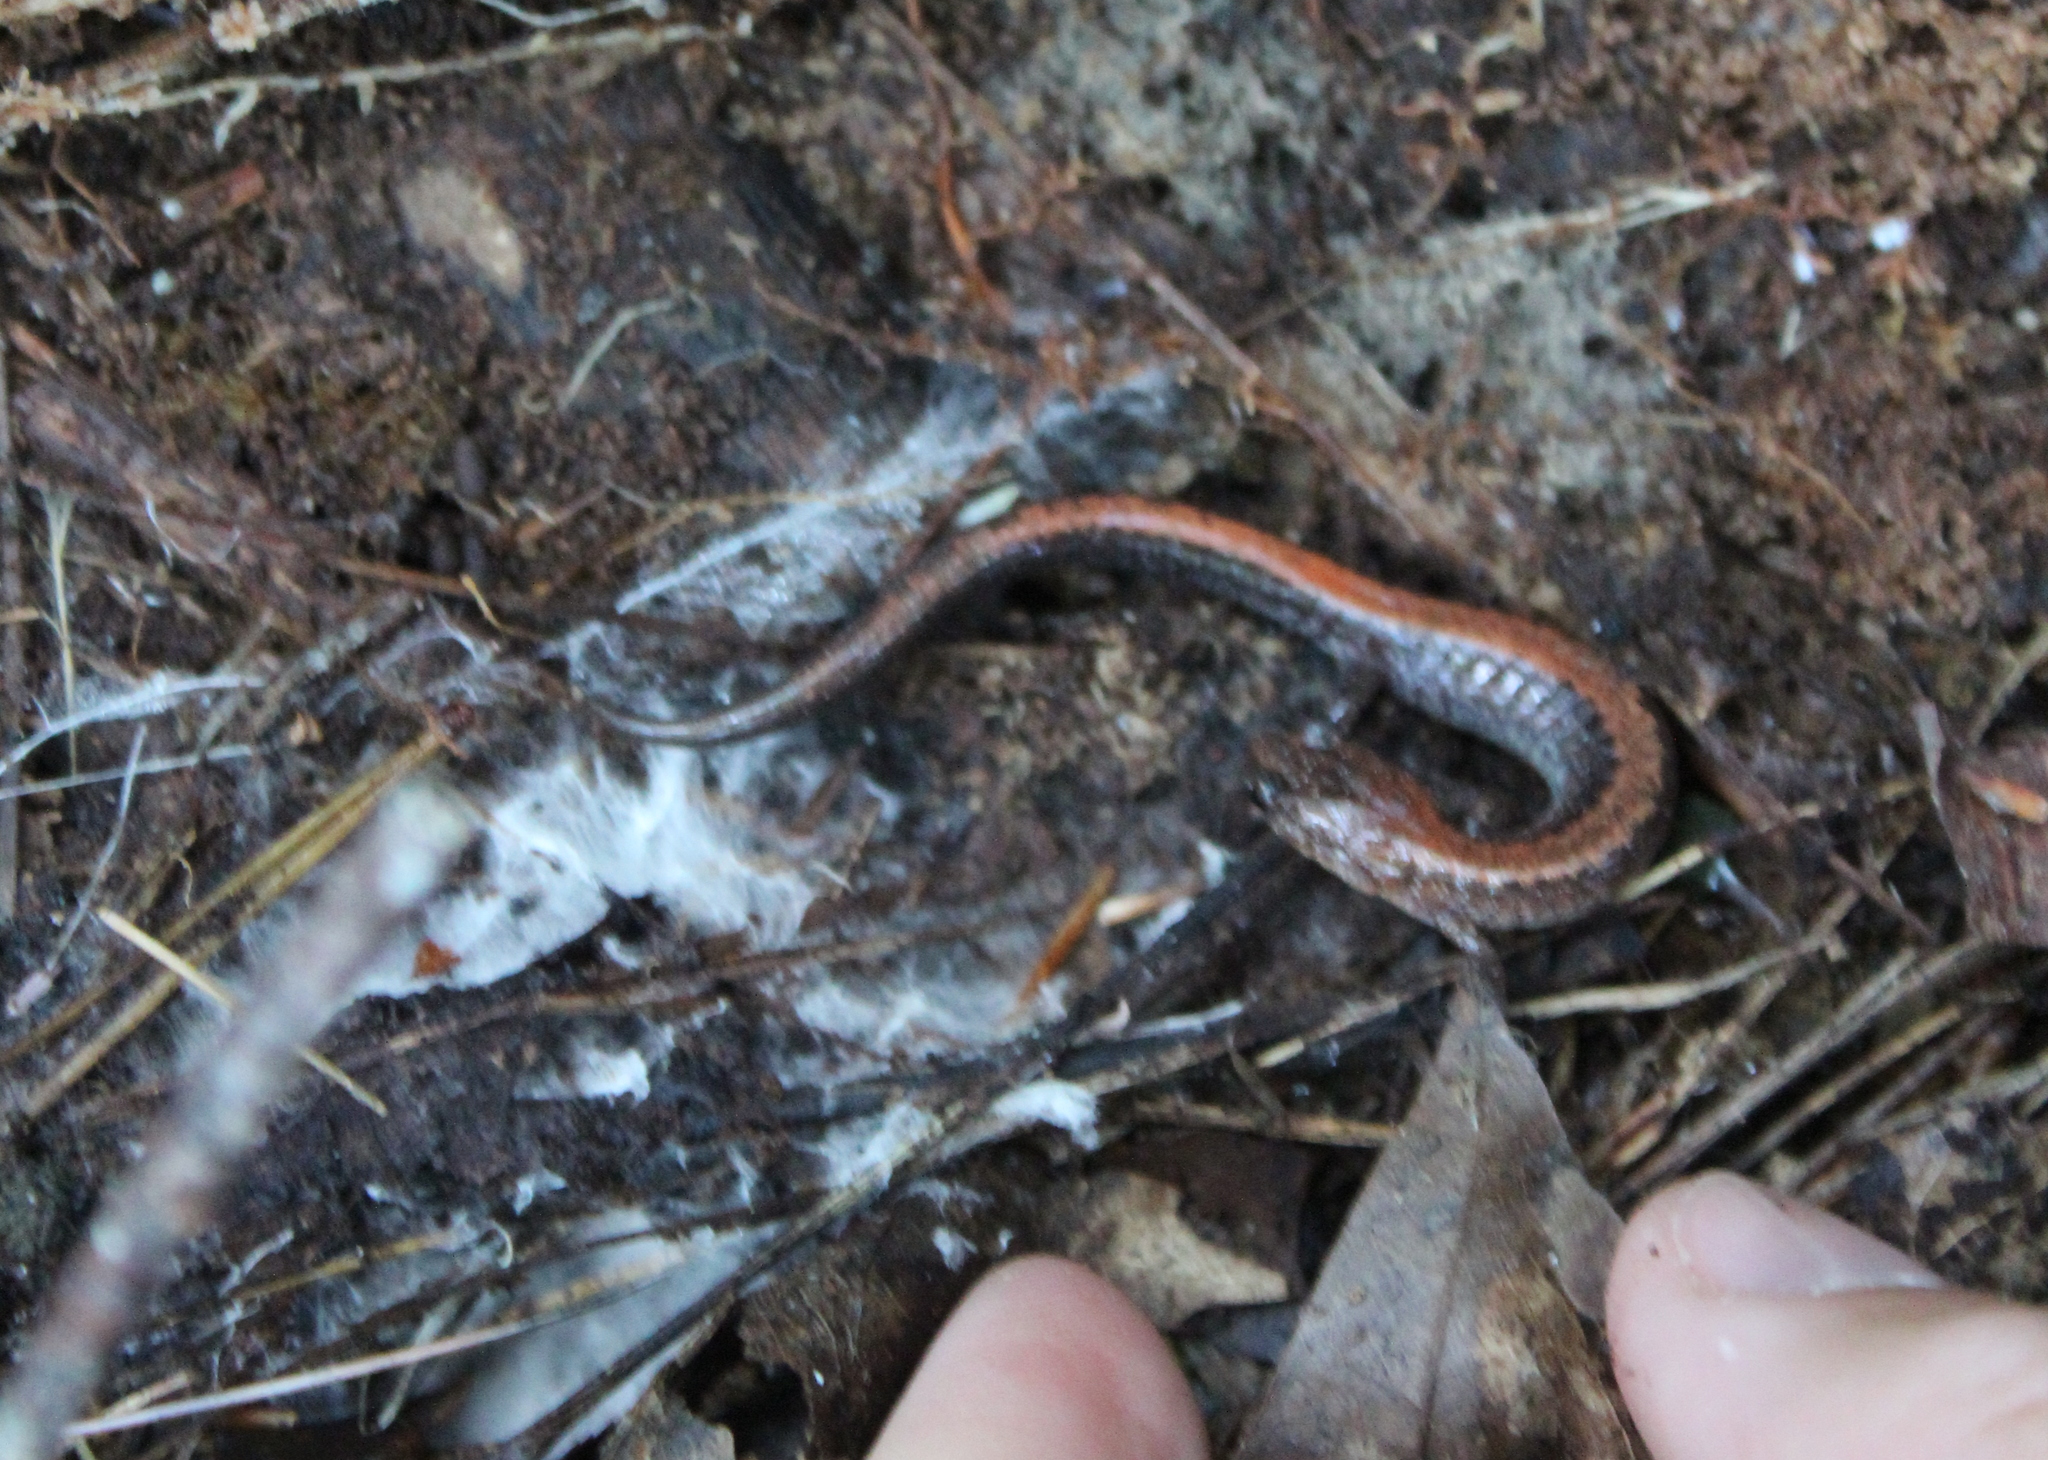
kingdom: Animalia
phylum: Chordata
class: Amphibia
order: Caudata
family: Plethodontidae
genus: Plethodon
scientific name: Plethodon cinereus
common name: Redback salamander
